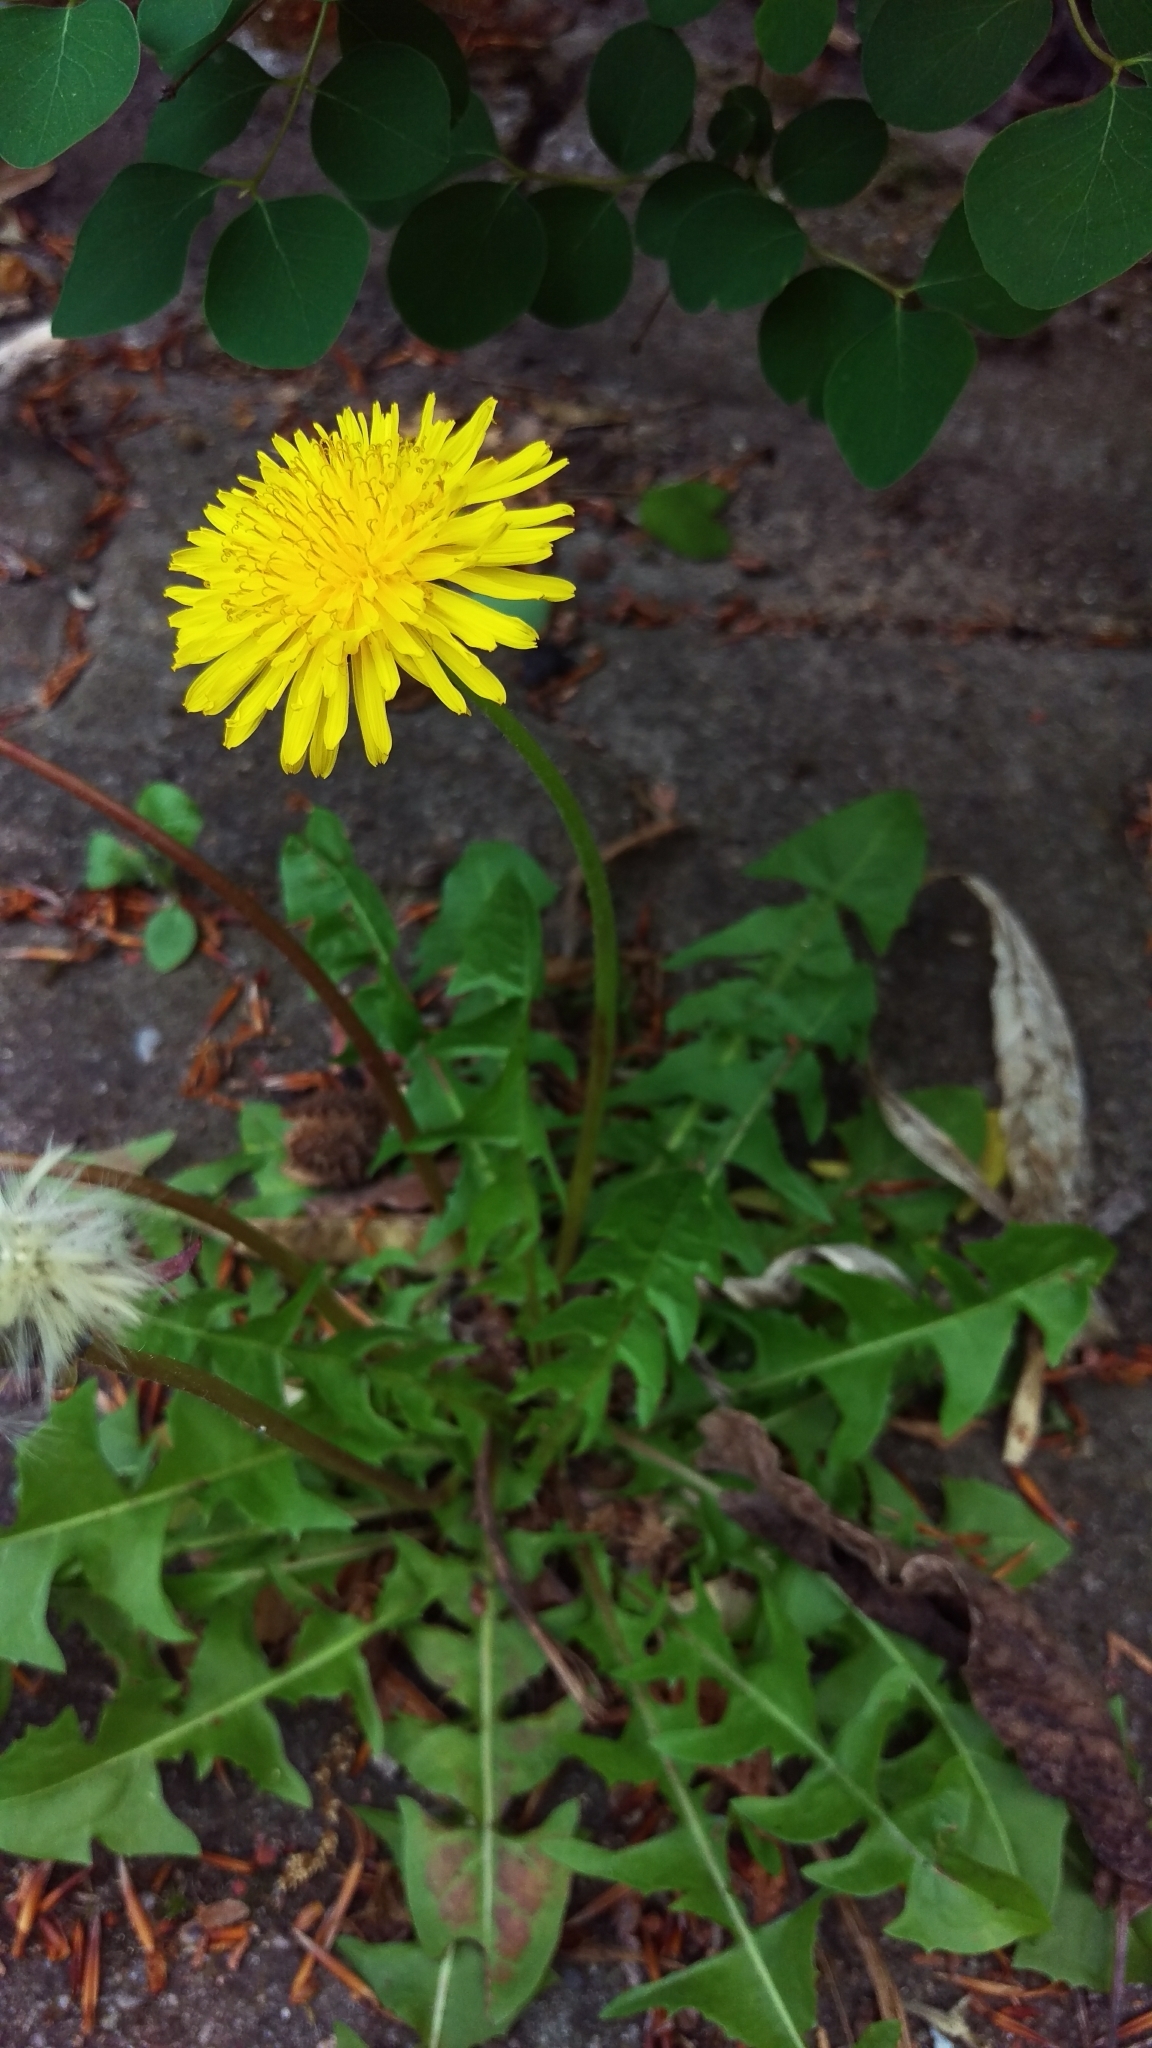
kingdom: Plantae
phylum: Tracheophyta
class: Magnoliopsida
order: Asterales
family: Asteraceae
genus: Taraxacum
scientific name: Taraxacum officinale
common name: Common dandelion
